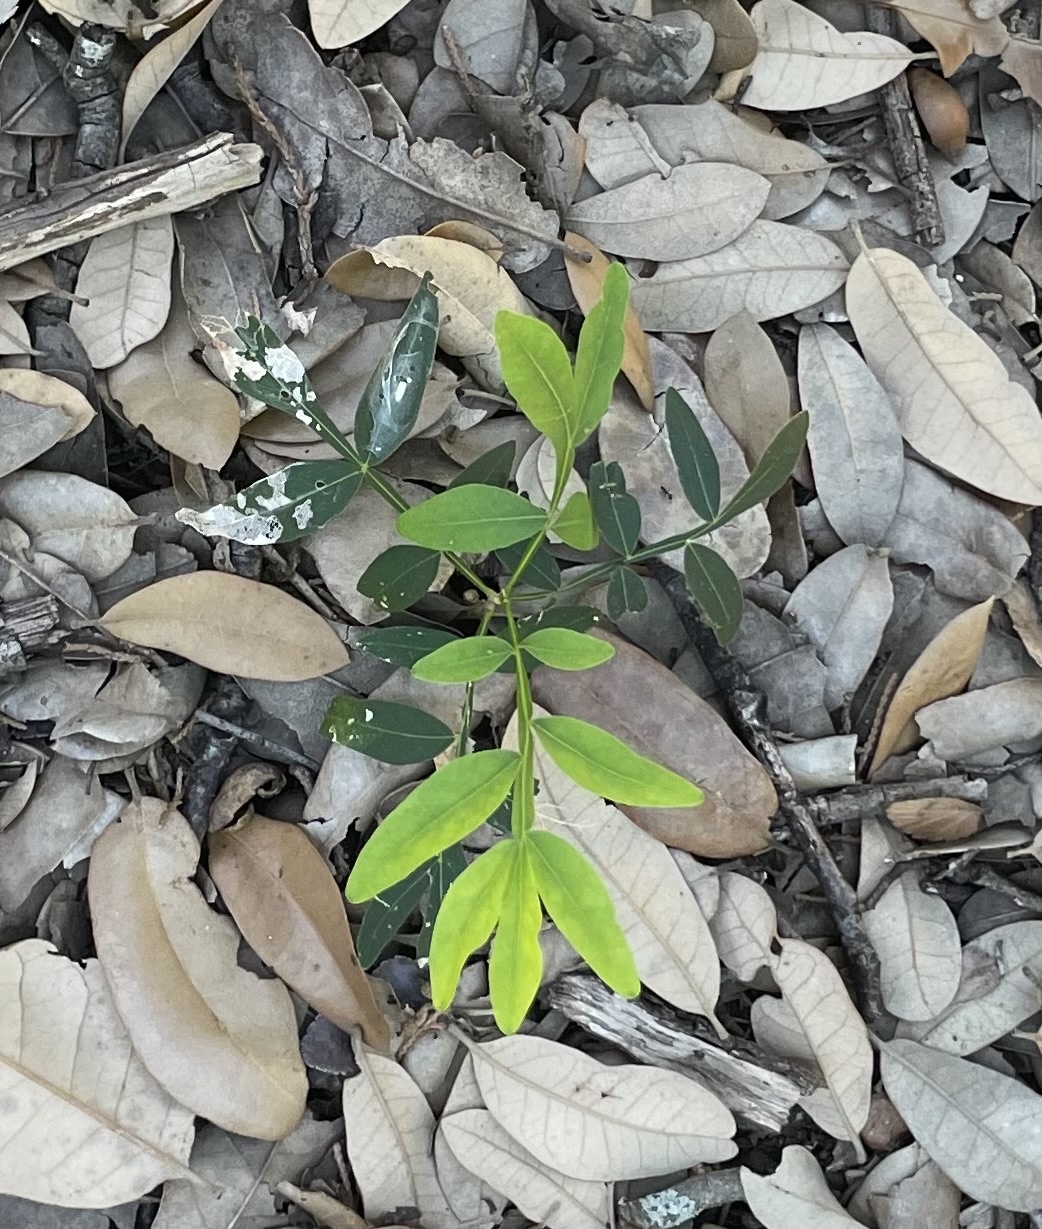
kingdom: Plantae
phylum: Tracheophyta
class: Magnoliopsida
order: Sapindales
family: Sapindaceae
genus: Sapindus
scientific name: Sapindus drummondii
